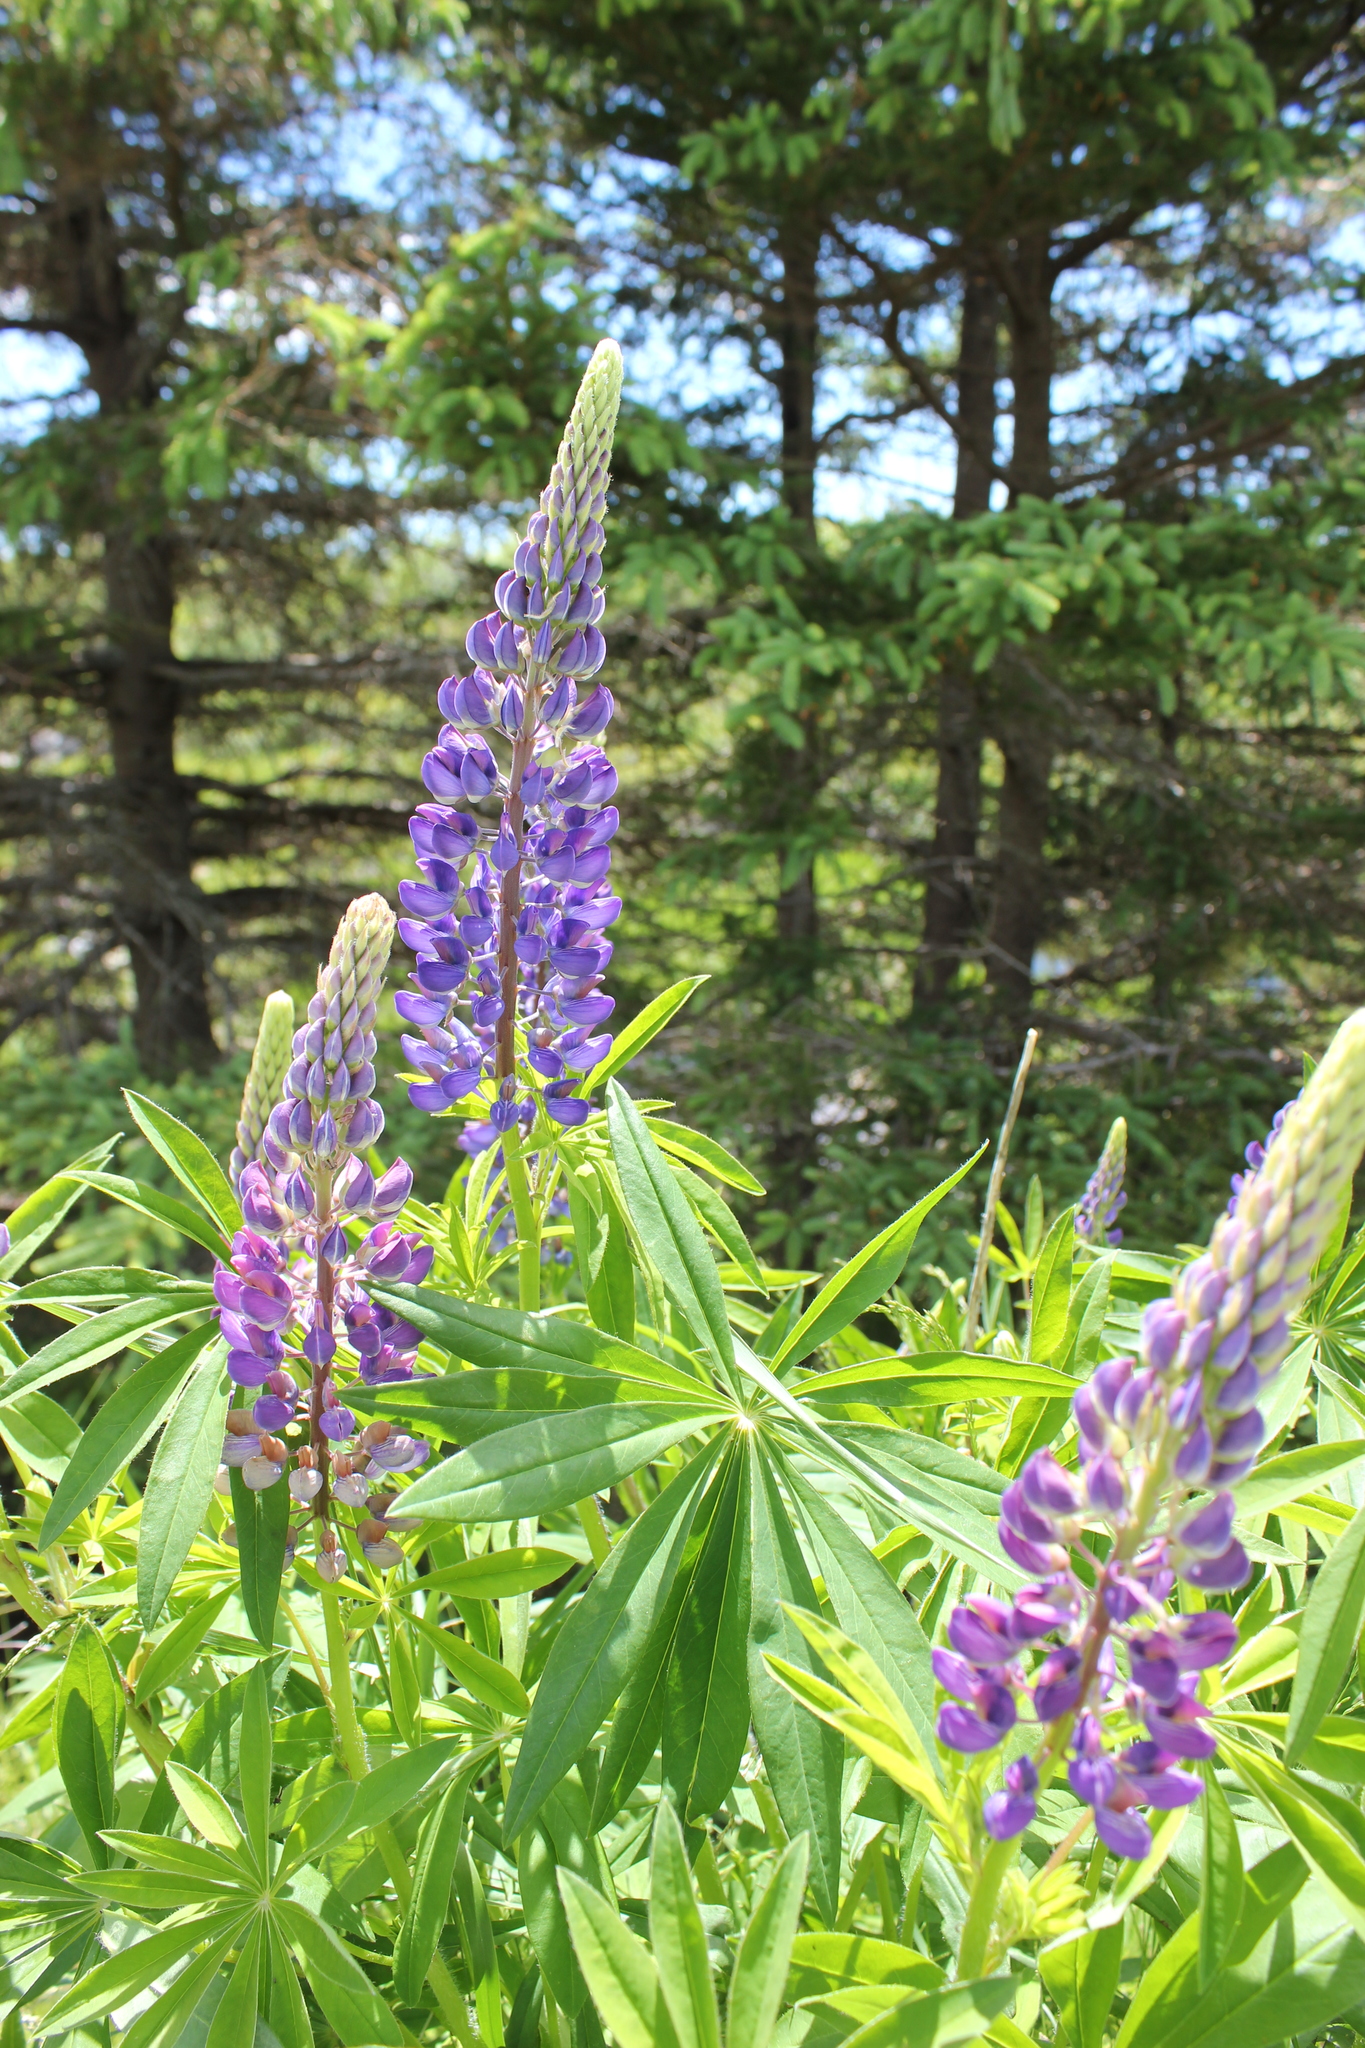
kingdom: Plantae
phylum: Tracheophyta
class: Magnoliopsida
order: Fabales
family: Fabaceae
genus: Lupinus
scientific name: Lupinus polyphyllus
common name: Garden lupin
